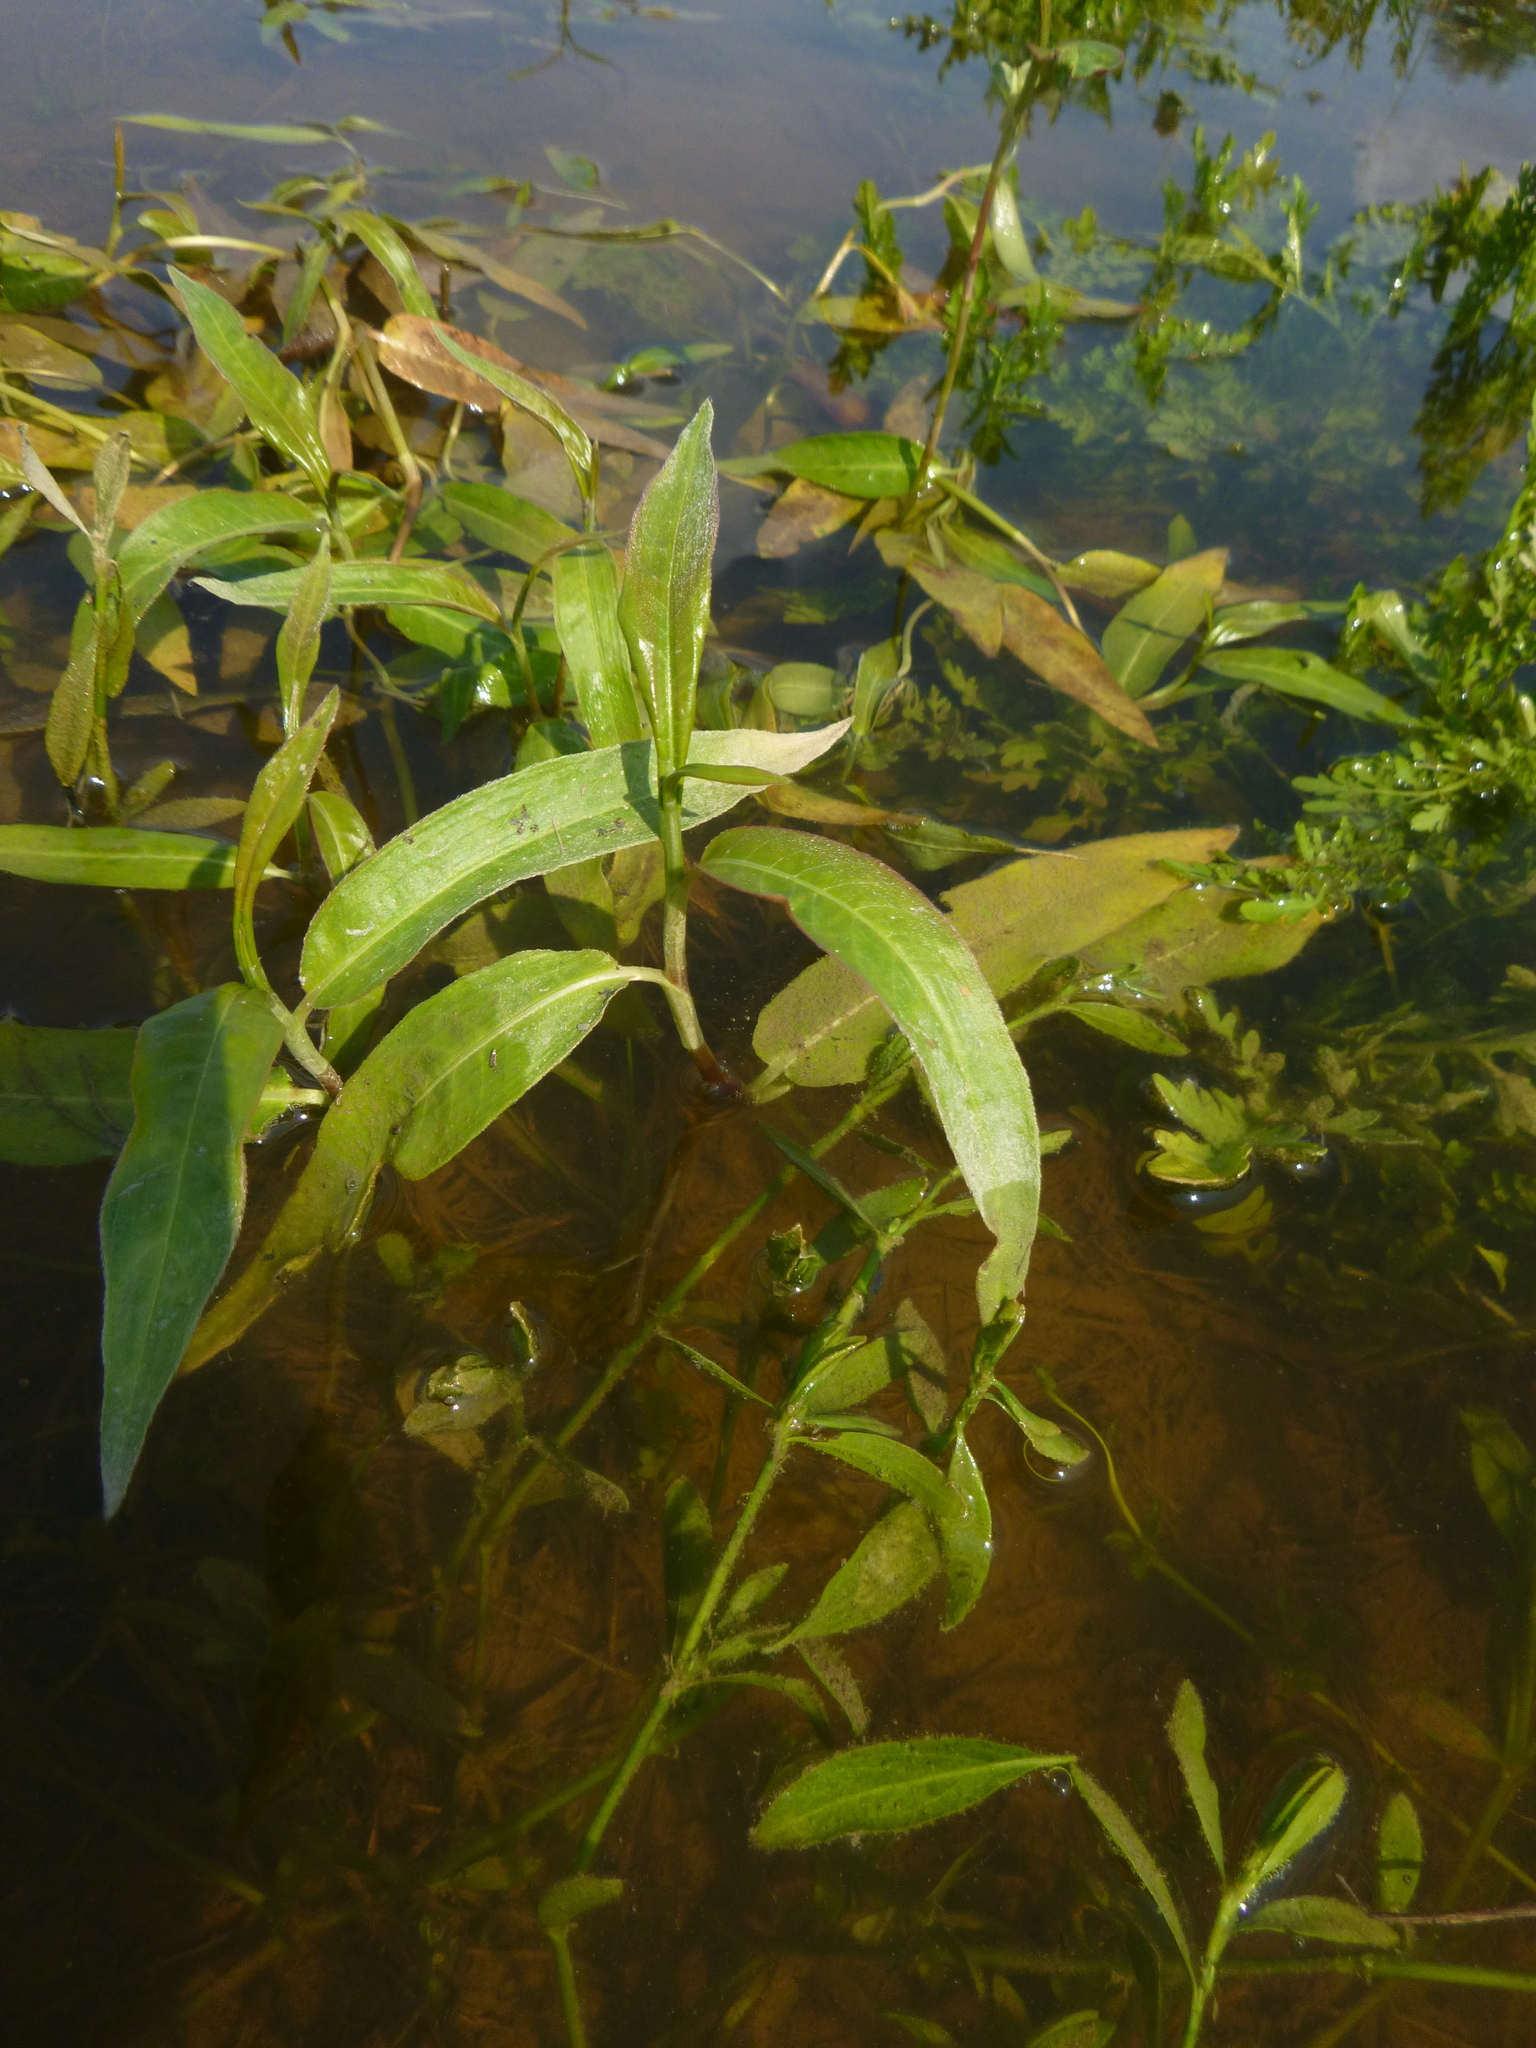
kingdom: Plantae
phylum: Tracheophyta
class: Magnoliopsida
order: Caryophyllales
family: Polygonaceae
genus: Persicaria
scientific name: Persicaria amphibia
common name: Amphibious bistort
